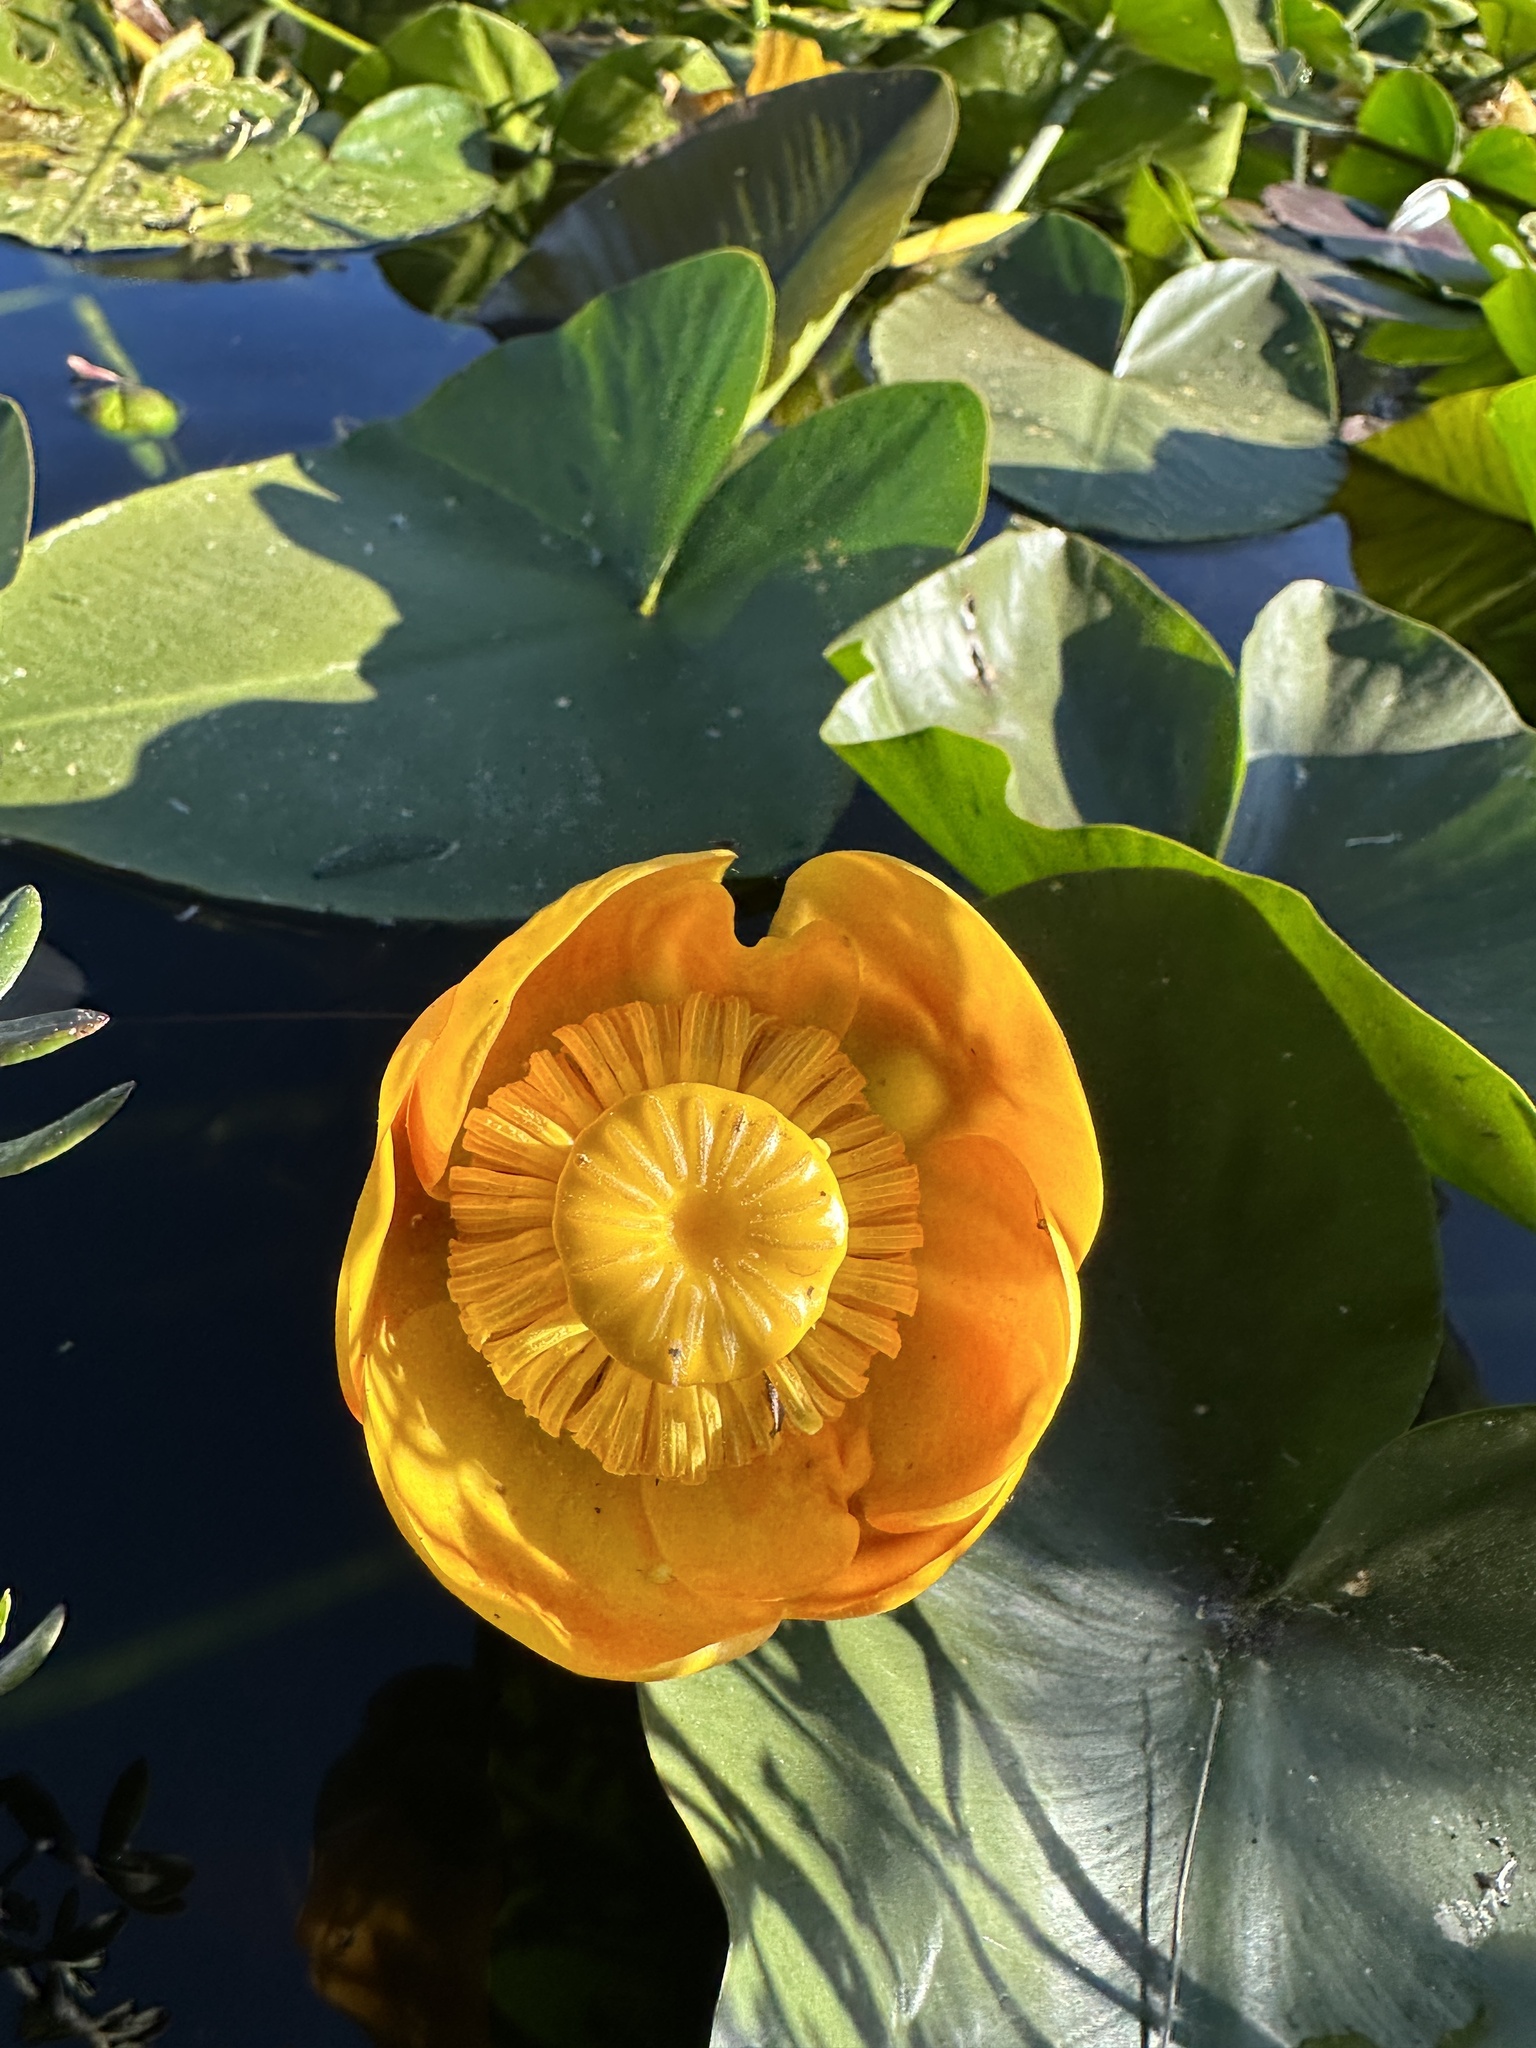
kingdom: Plantae
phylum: Tracheophyta
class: Magnoliopsida
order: Nymphaeales
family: Nymphaeaceae
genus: Nuphar
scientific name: Nuphar polysepala
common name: Rocky mountain cow-lily
